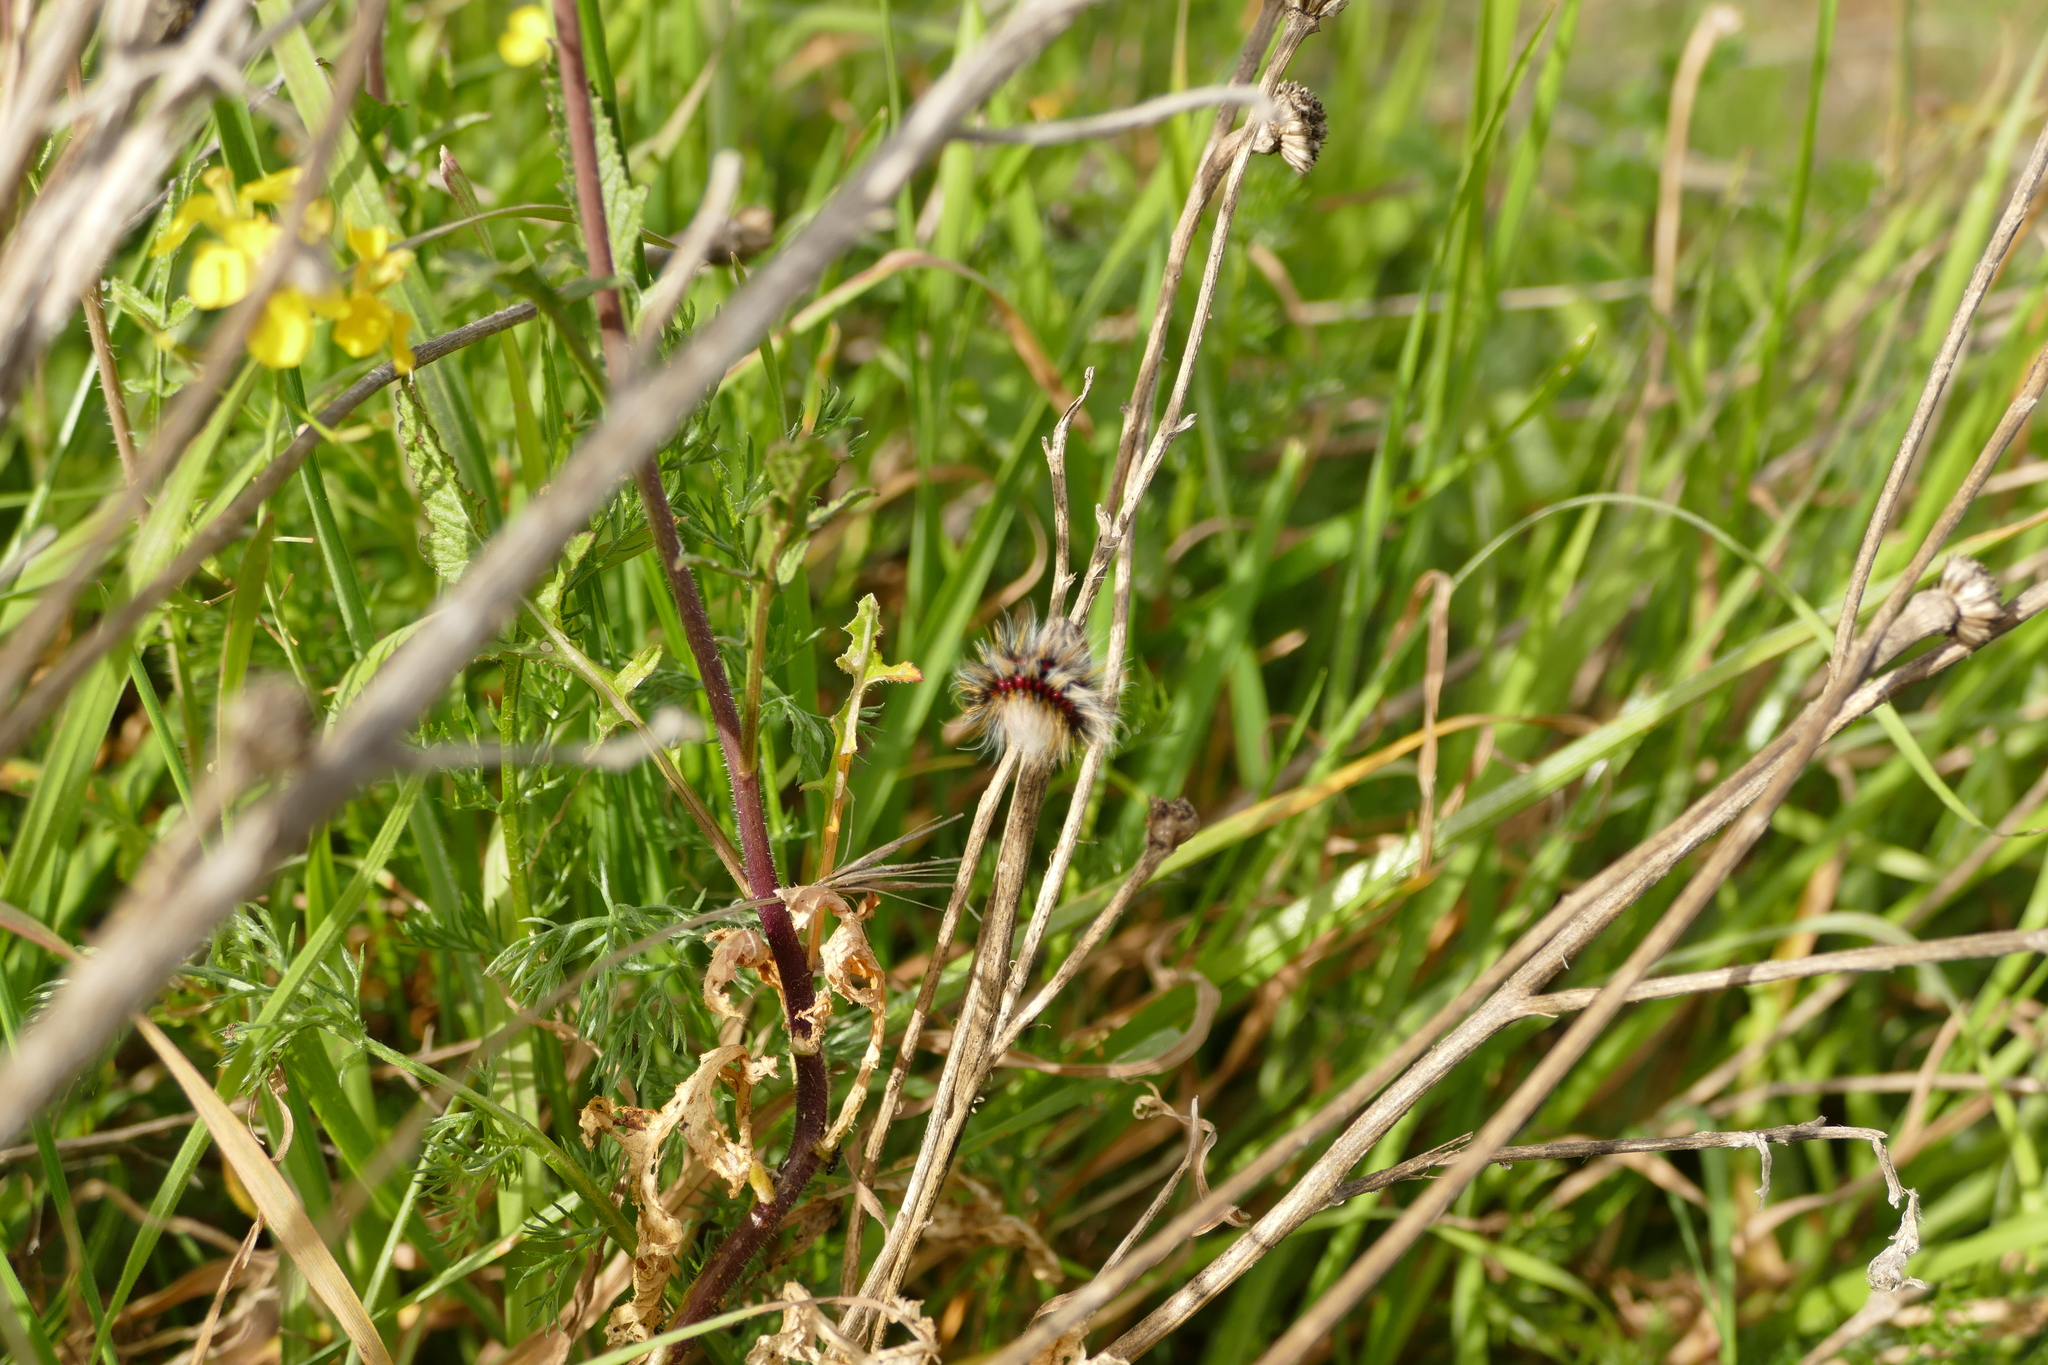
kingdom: Animalia
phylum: Arthropoda
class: Insecta
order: Lepidoptera
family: Lasiocampidae
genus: Chondrostega
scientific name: Chondrostega vandalicia
